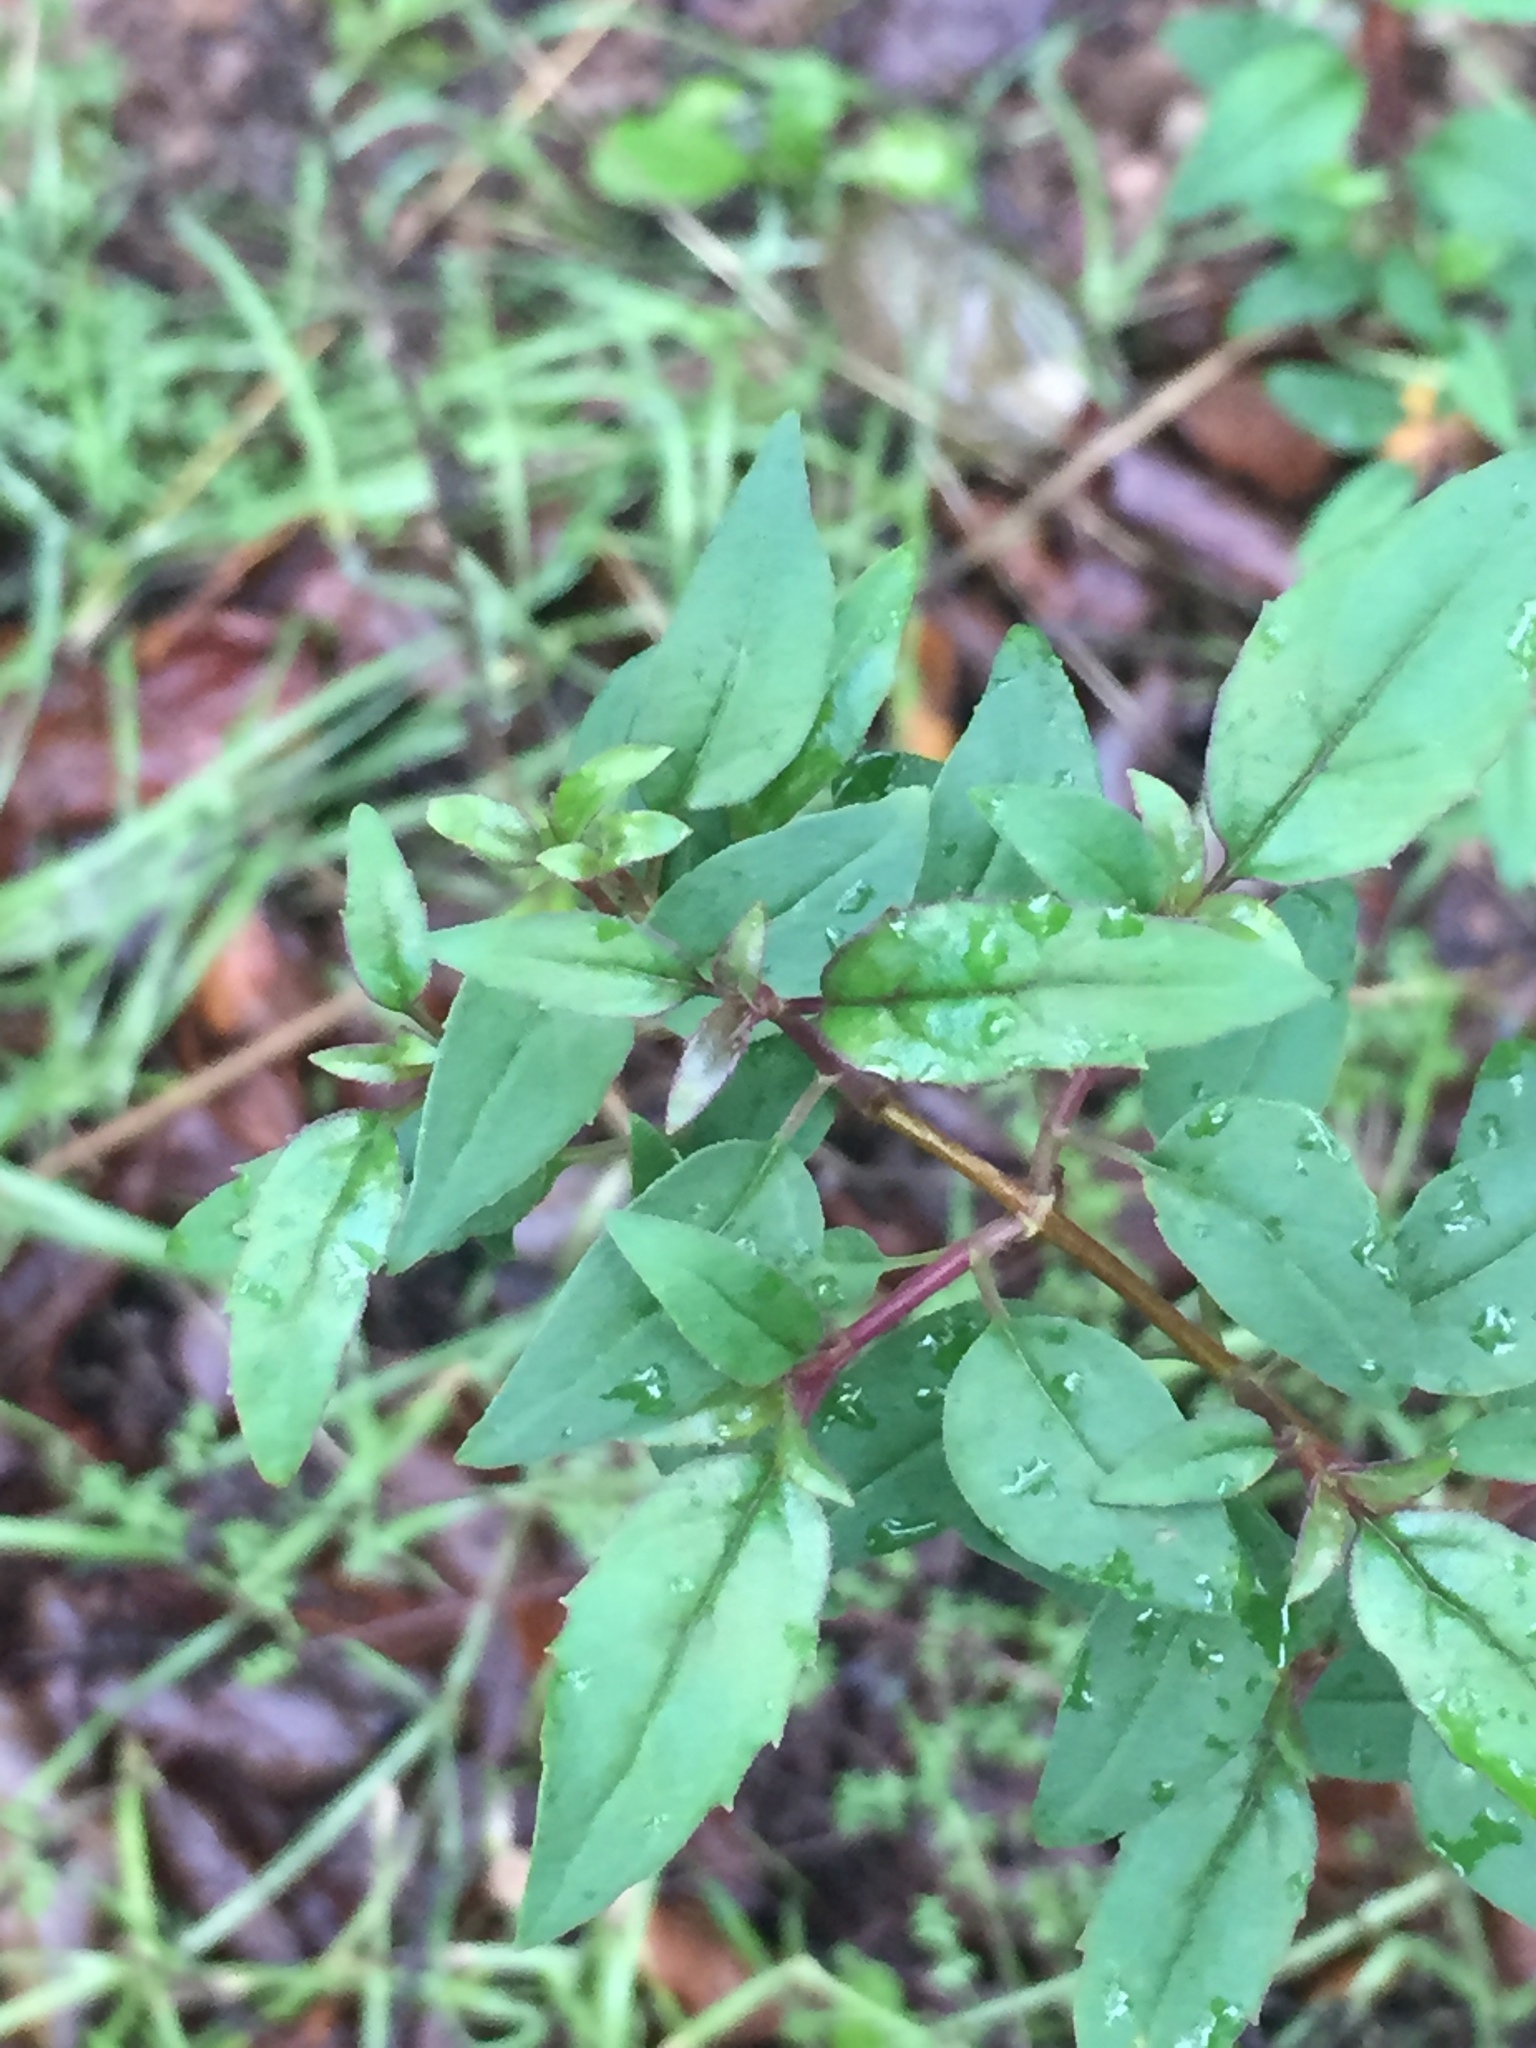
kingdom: Plantae
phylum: Tracheophyta
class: Magnoliopsida
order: Lamiales
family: Plantaginaceae
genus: Keckiella
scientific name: Keckiella cordifolia
